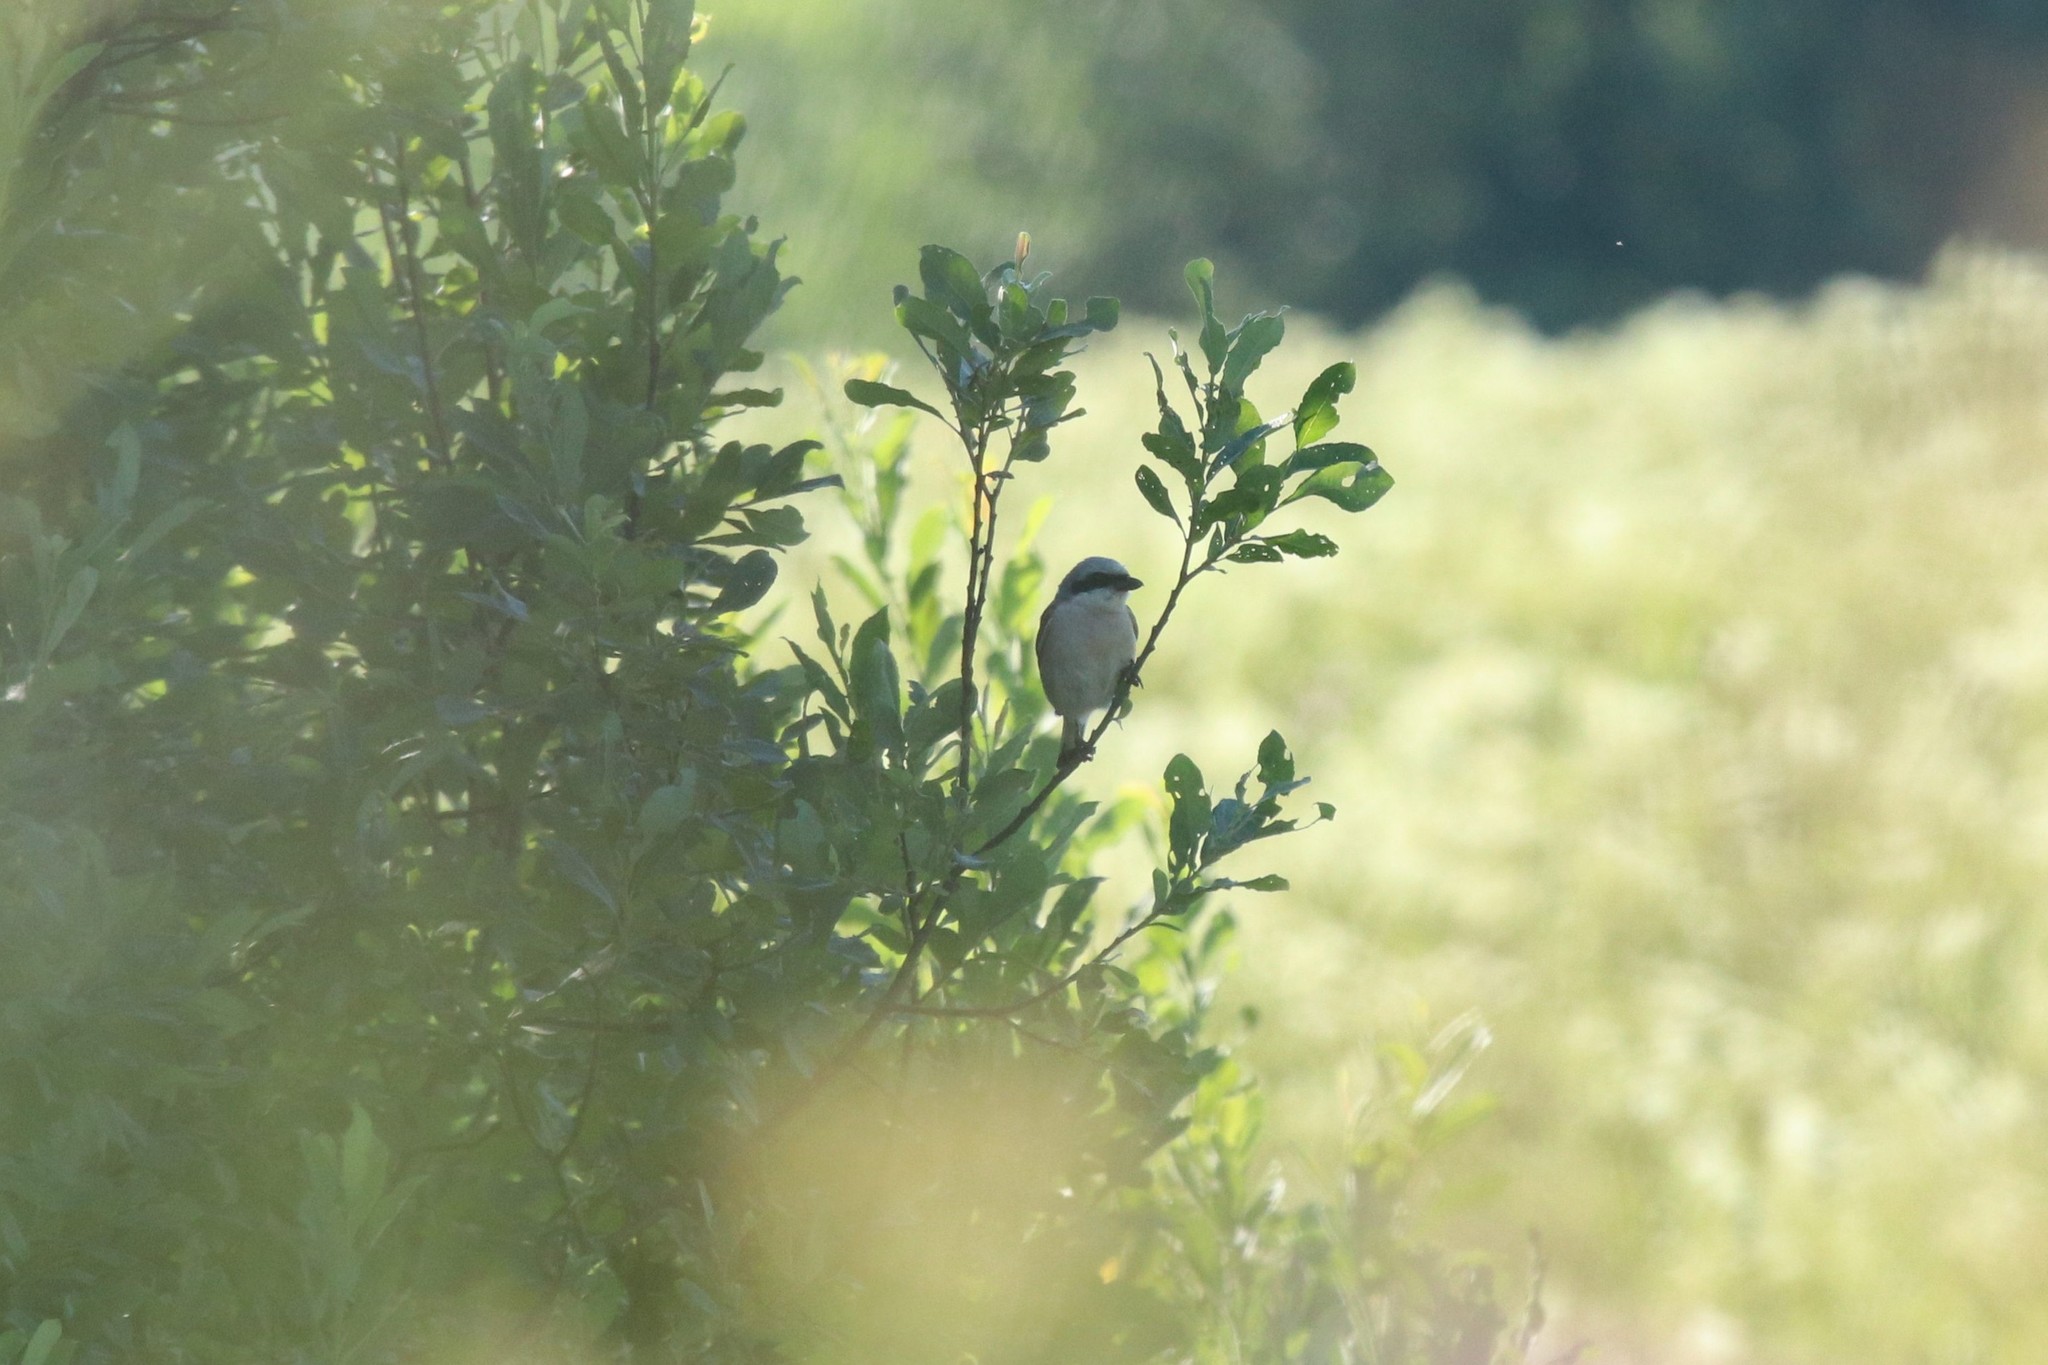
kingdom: Animalia
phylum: Chordata
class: Aves
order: Passeriformes
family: Laniidae
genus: Lanius
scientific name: Lanius collurio
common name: Red-backed shrike
